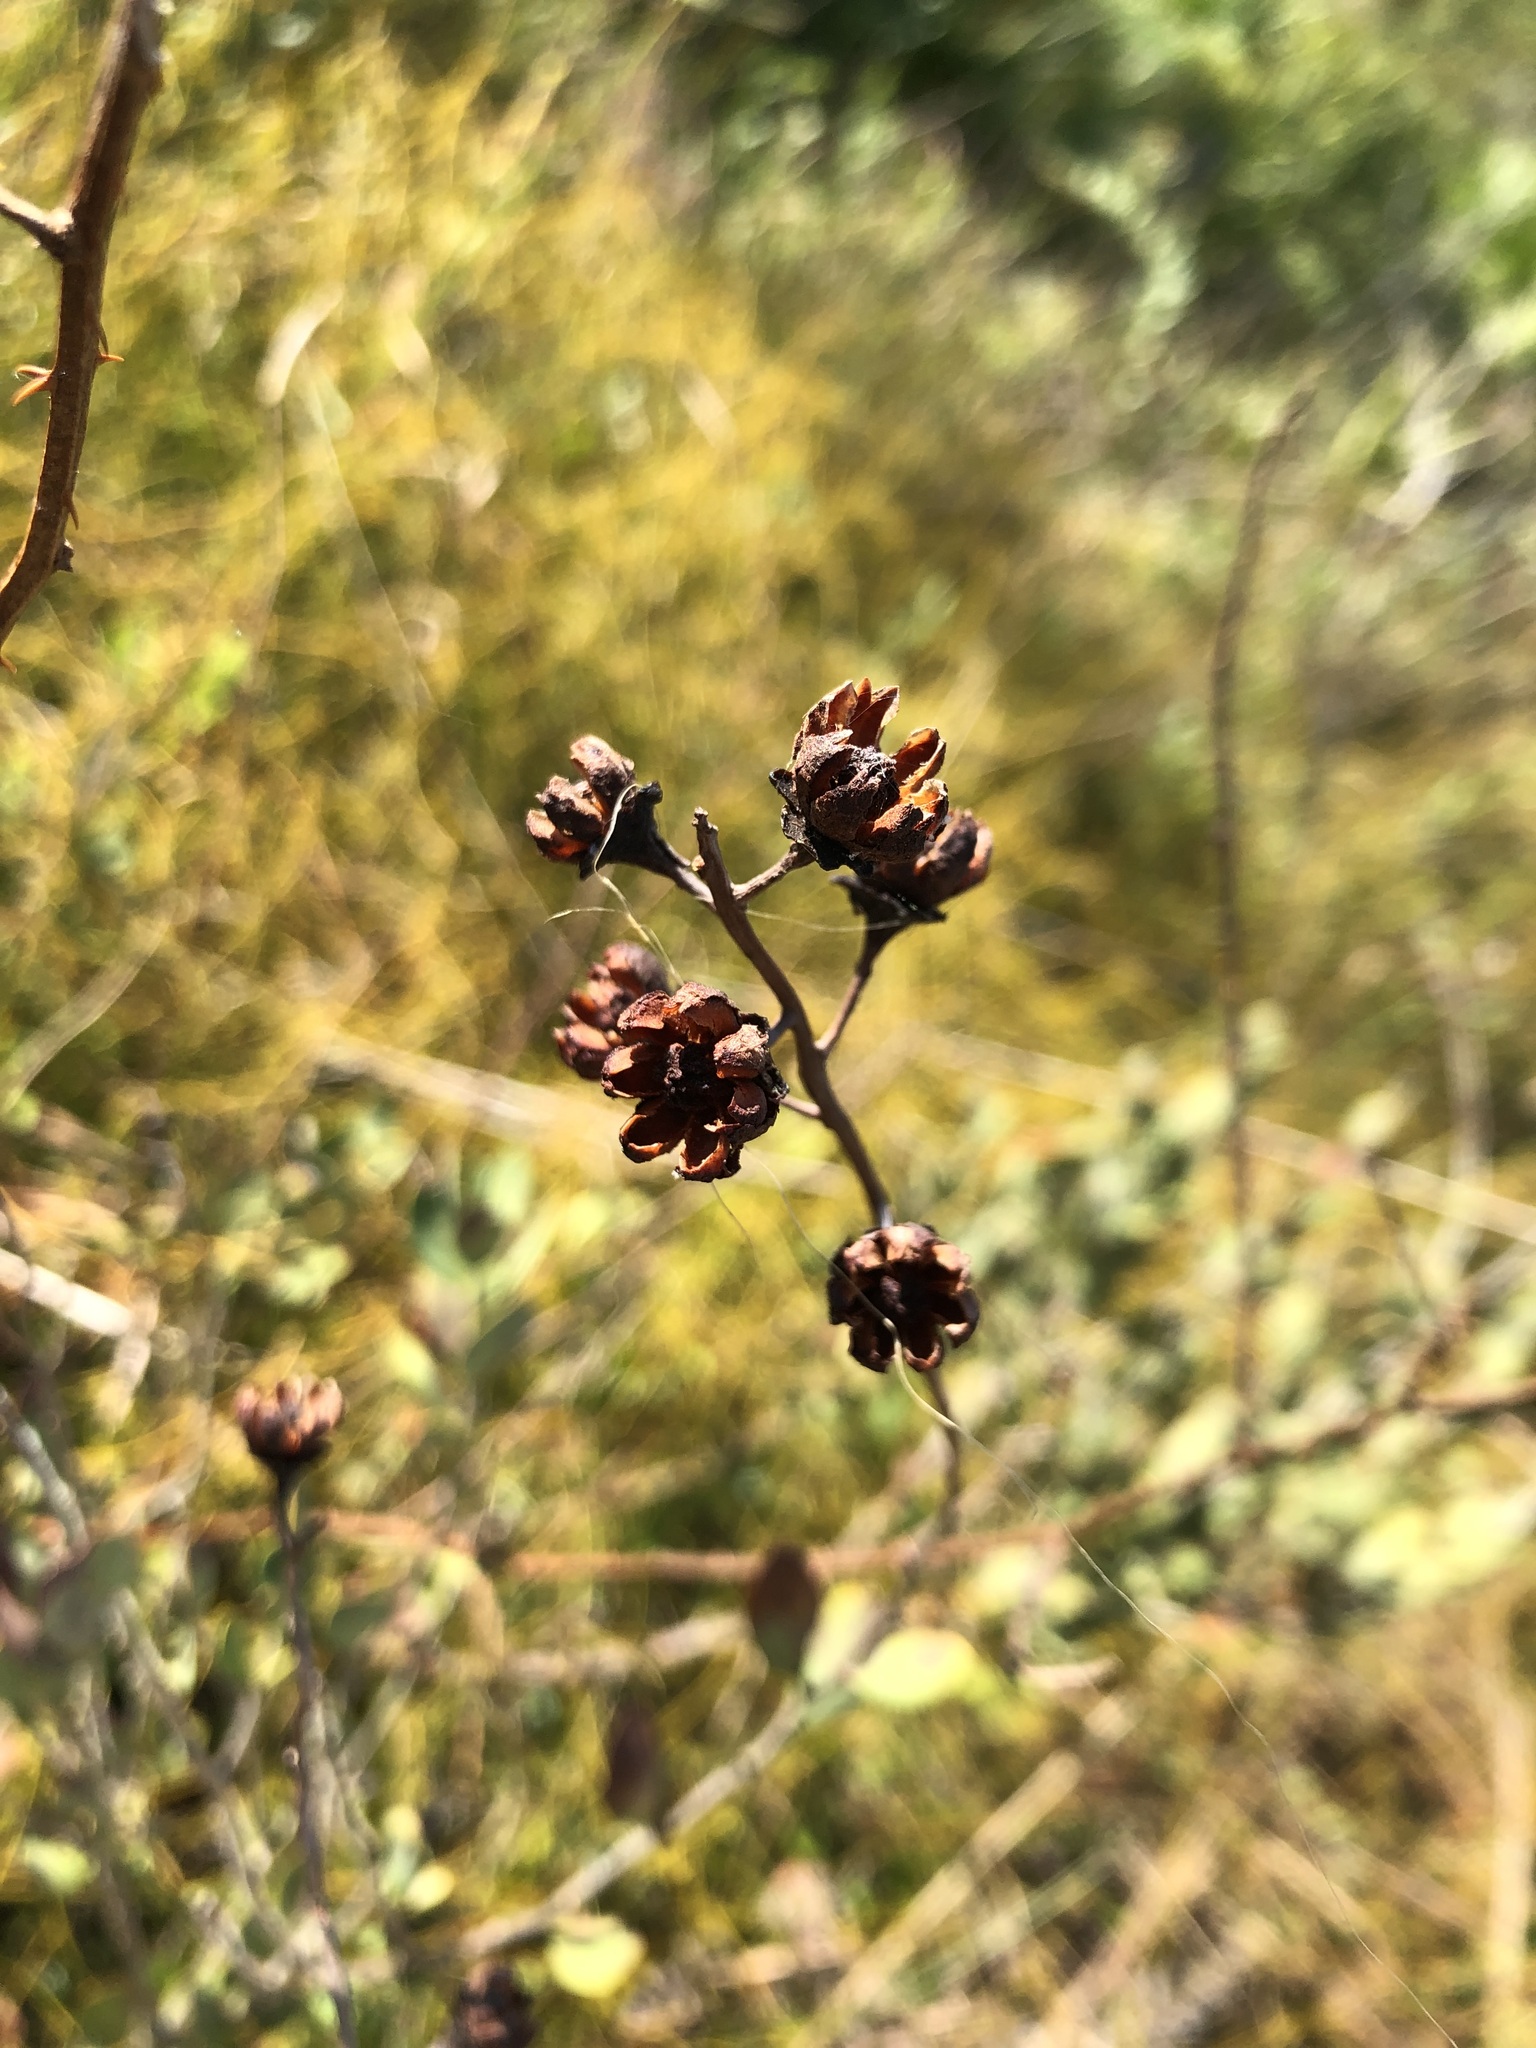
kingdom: Plantae
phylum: Tracheophyta
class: Magnoliopsida
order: Ericales
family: Ericaceae
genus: Bejaria
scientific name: Bejaria racemosa
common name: Tarflower
